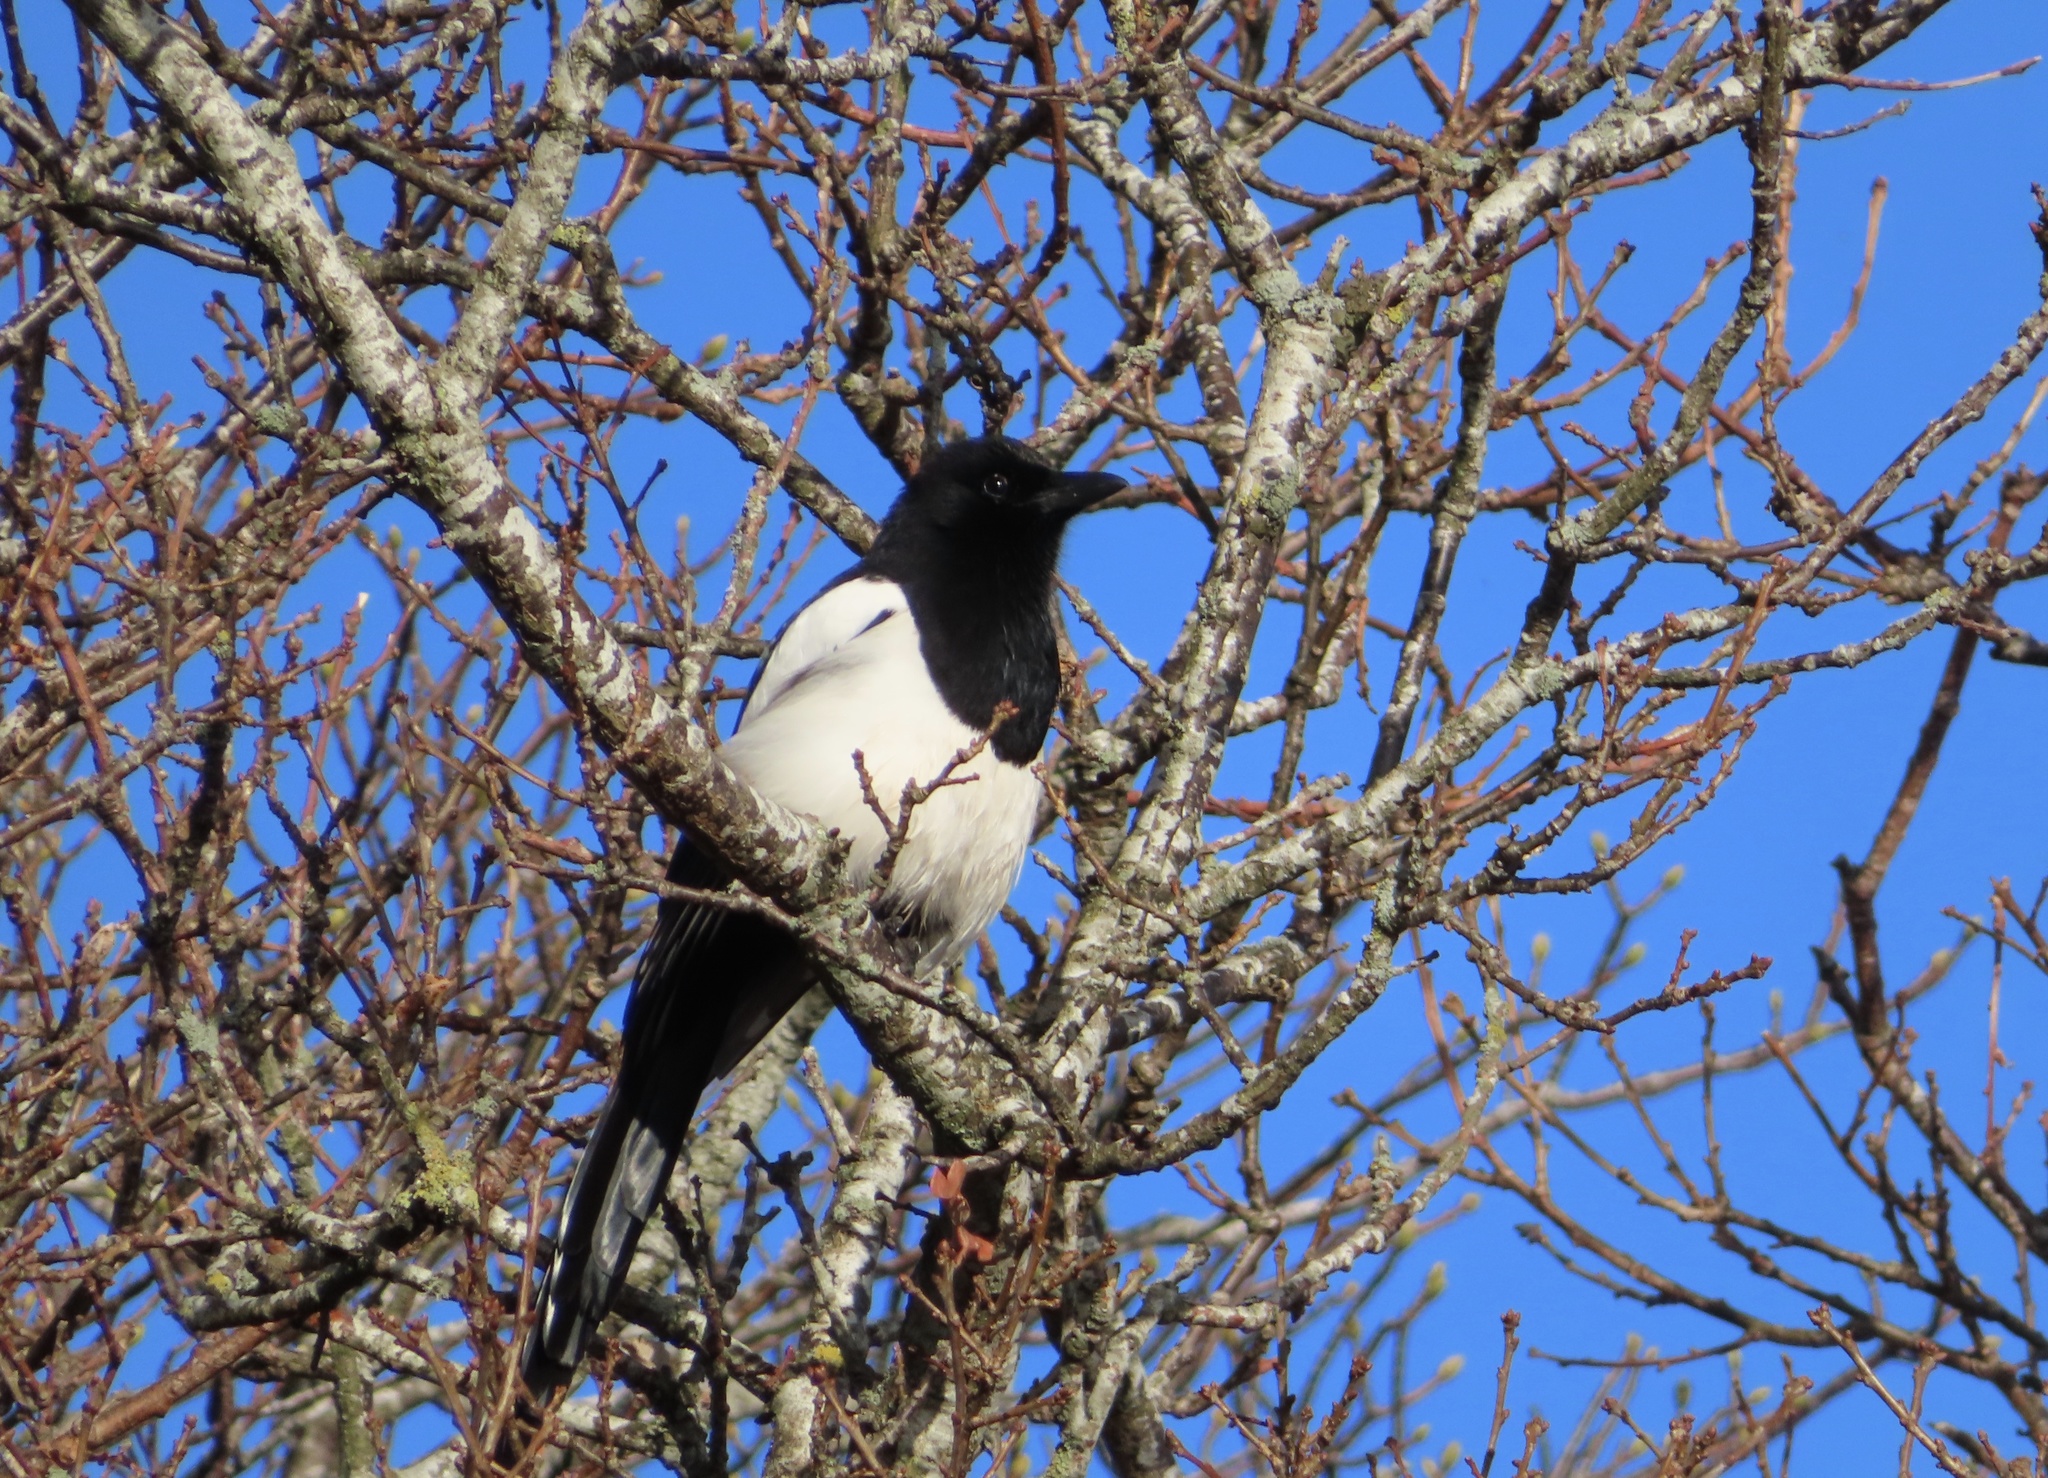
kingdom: Animalia
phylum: Chordata
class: Aves
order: Passeriformes
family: Corvidae
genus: Pica
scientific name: Pica pica
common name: Eurasian magpie
